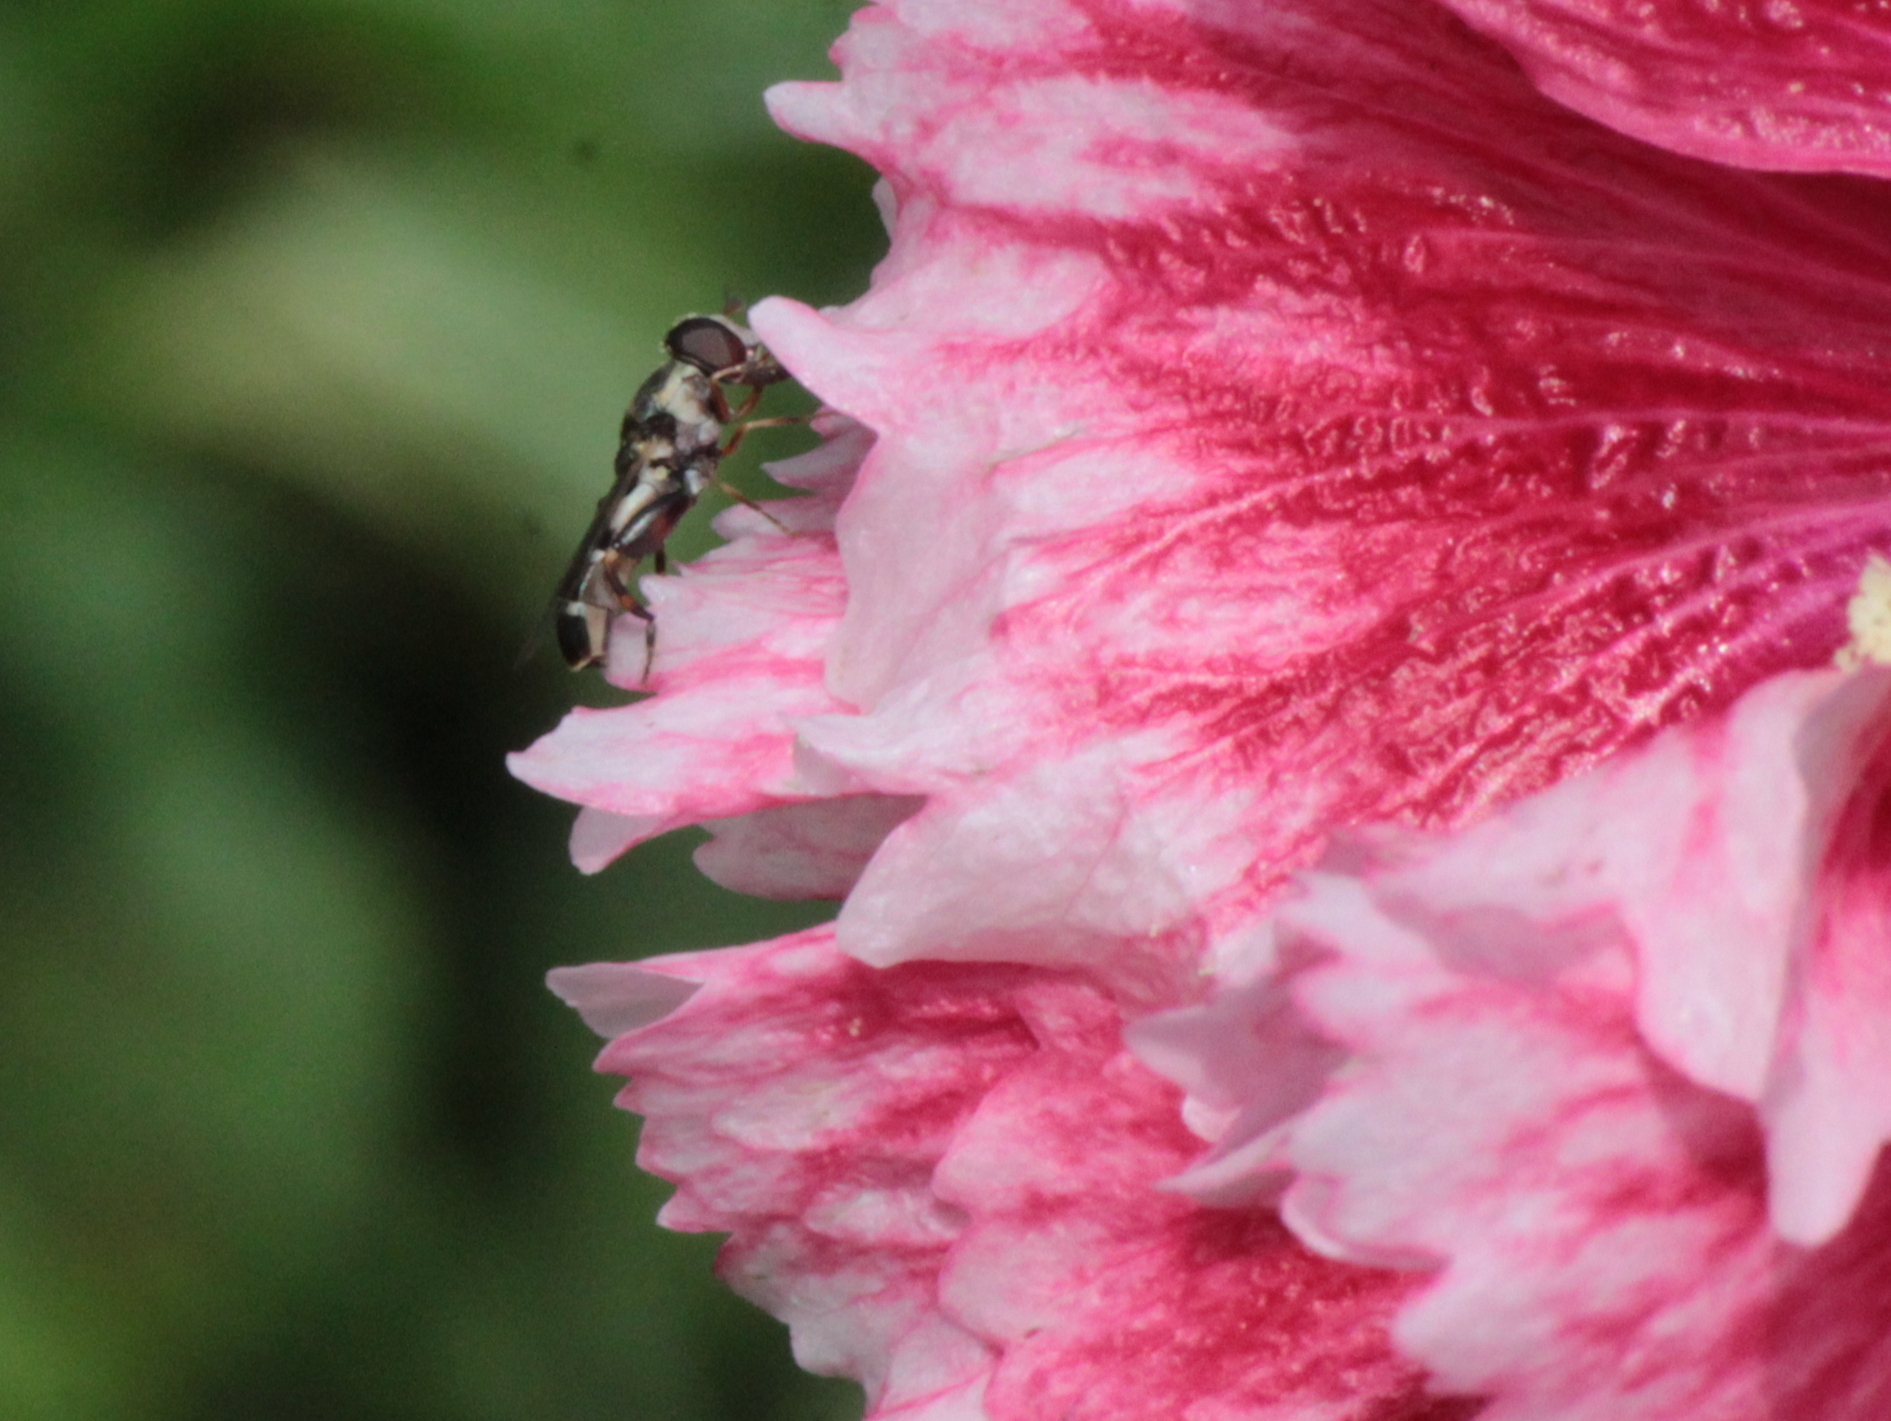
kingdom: Animalia
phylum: Arthropoda
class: Insecta
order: Diptera
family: Syrphidae
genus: Syritta
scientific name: Syritta pipiens
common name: Hover fly
